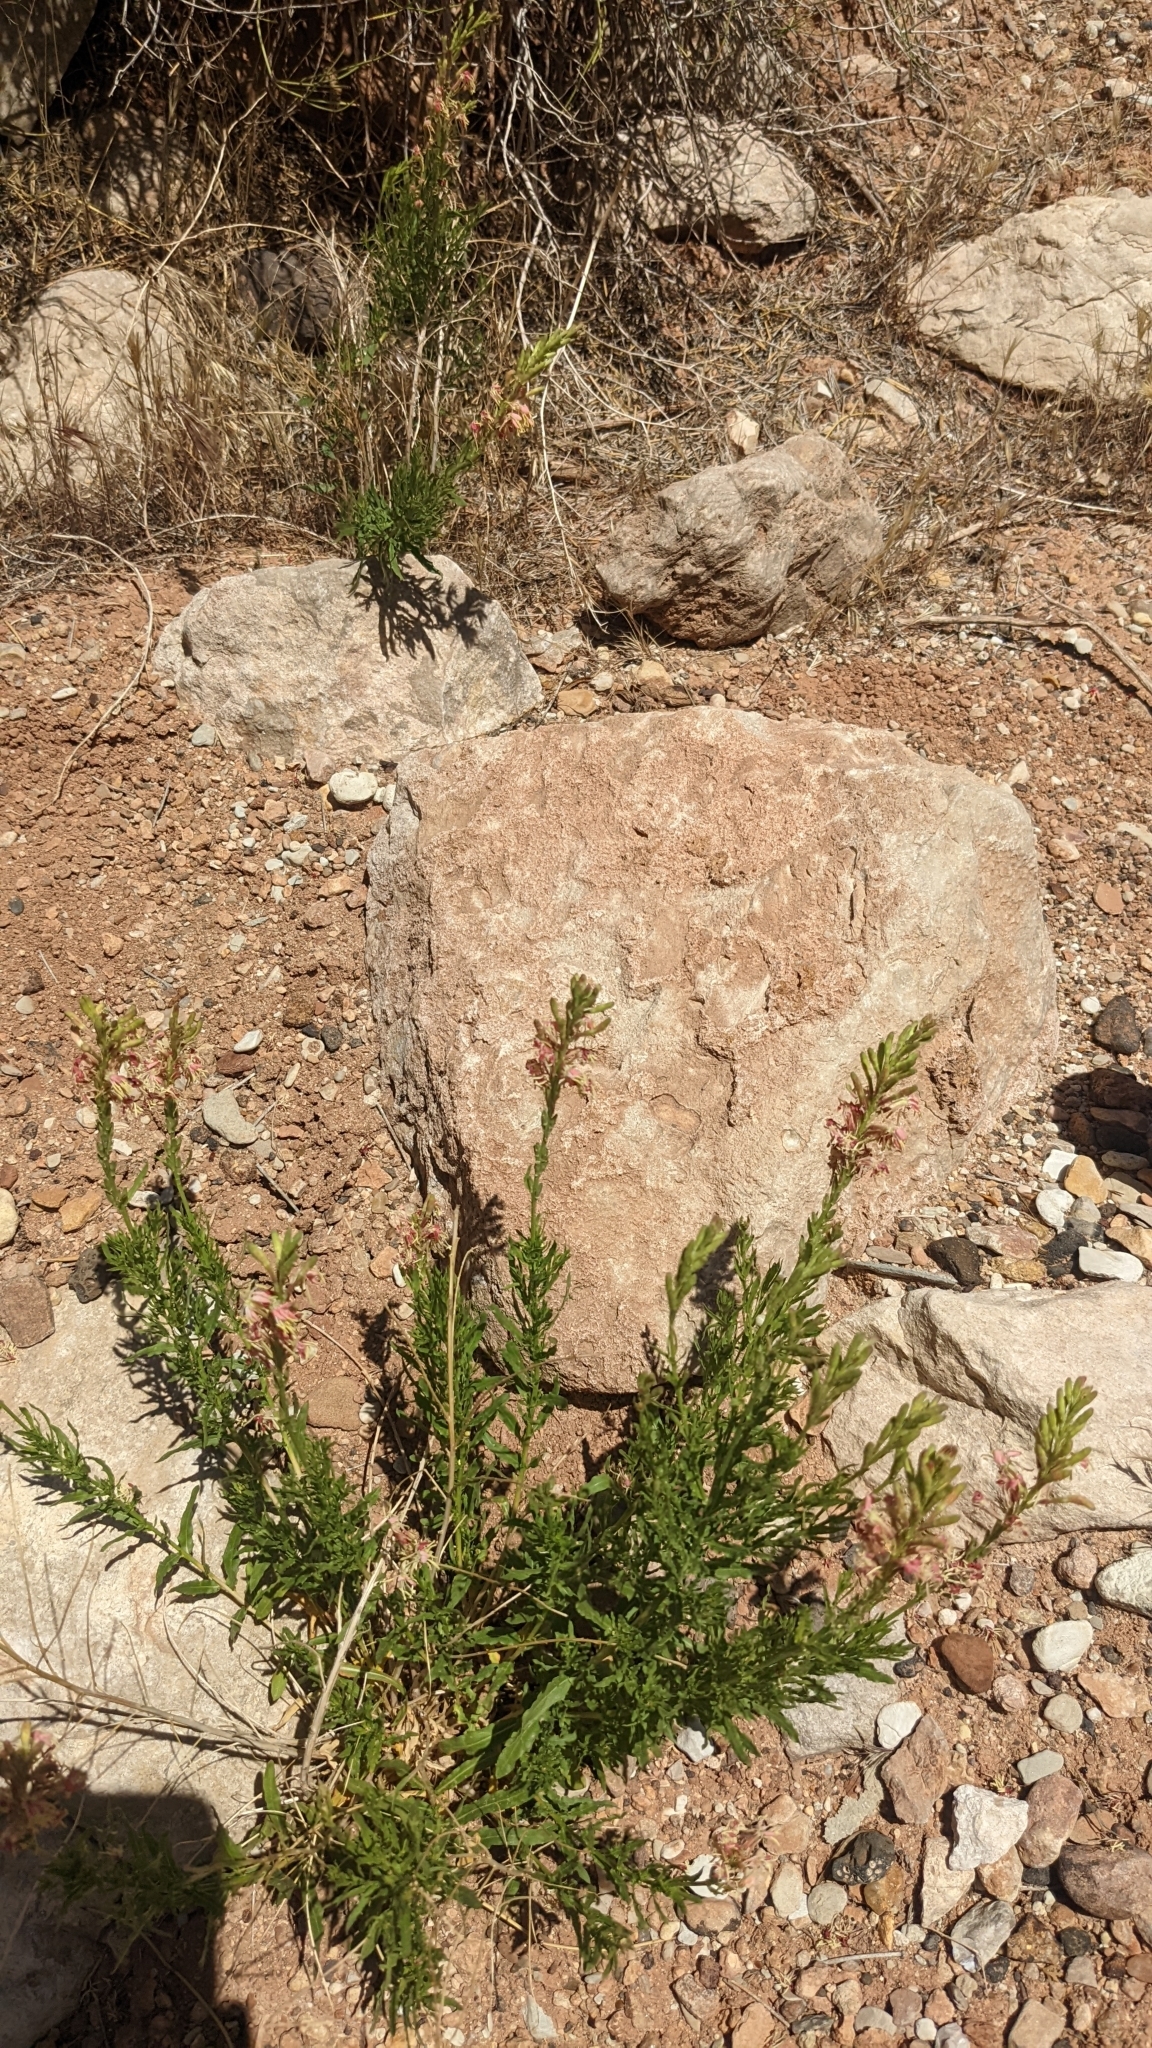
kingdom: Plantae
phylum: Tracheophyta
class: Magnoliopsida
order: Myrtales
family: Onagraceae
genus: Oenothera
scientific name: Oenothera suffrutescens
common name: Scarlet beeblossom
